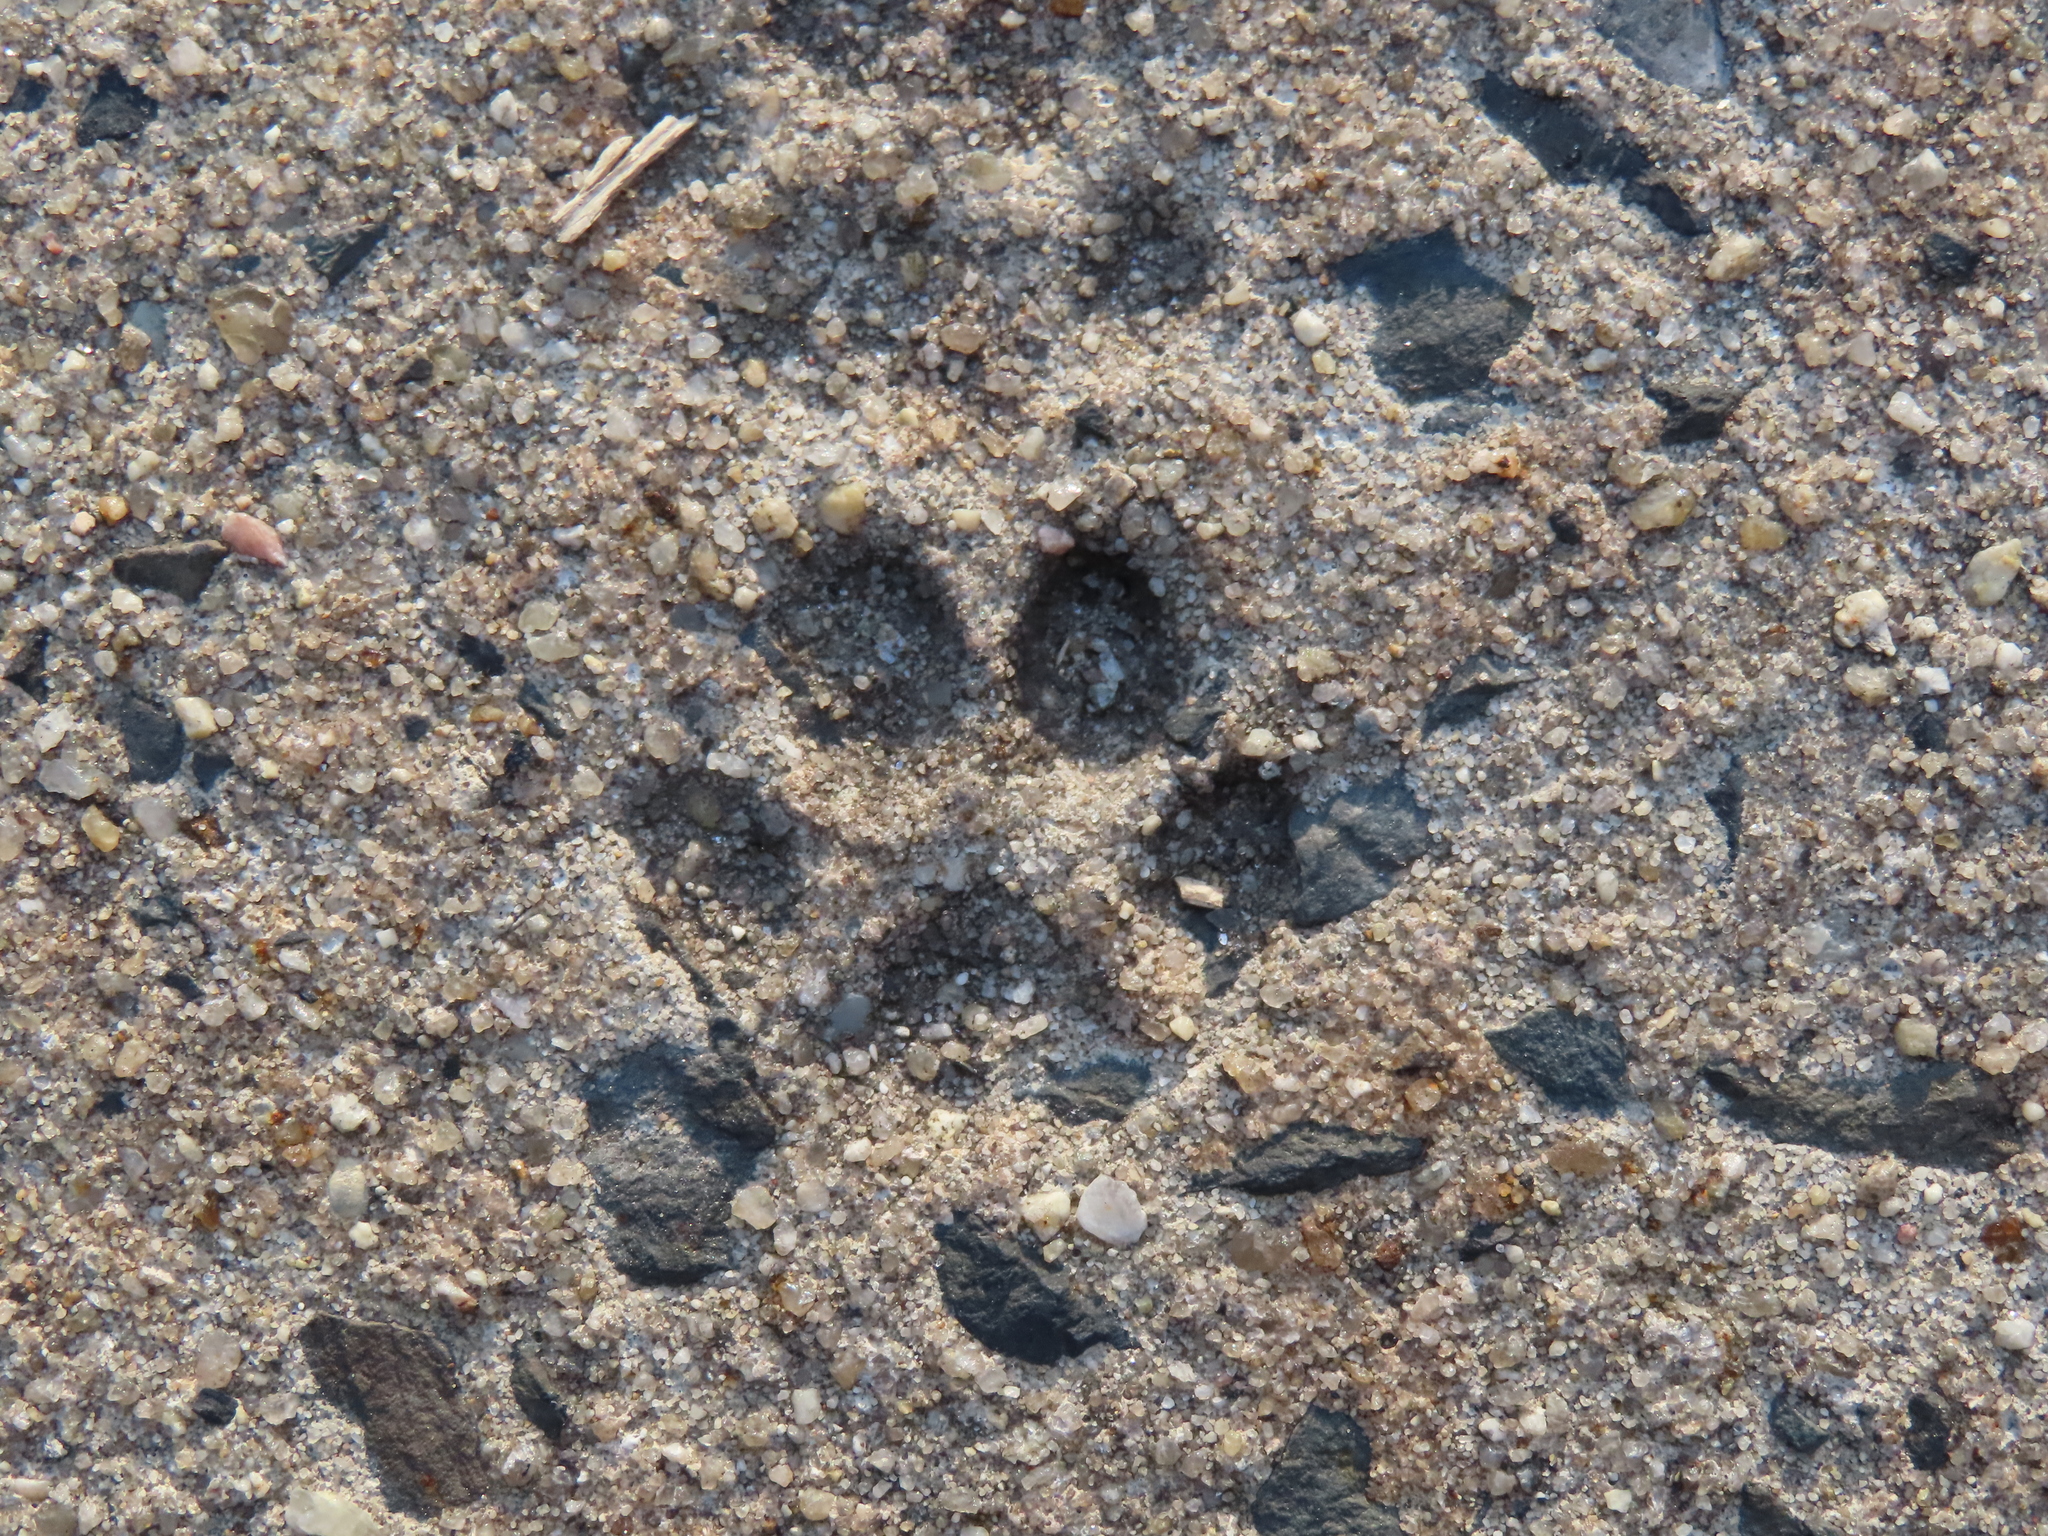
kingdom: Animalia
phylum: Chordata
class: Mammalia
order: Carnivora
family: Felidae
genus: Felis
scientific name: Felis catus
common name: Domestic cat
